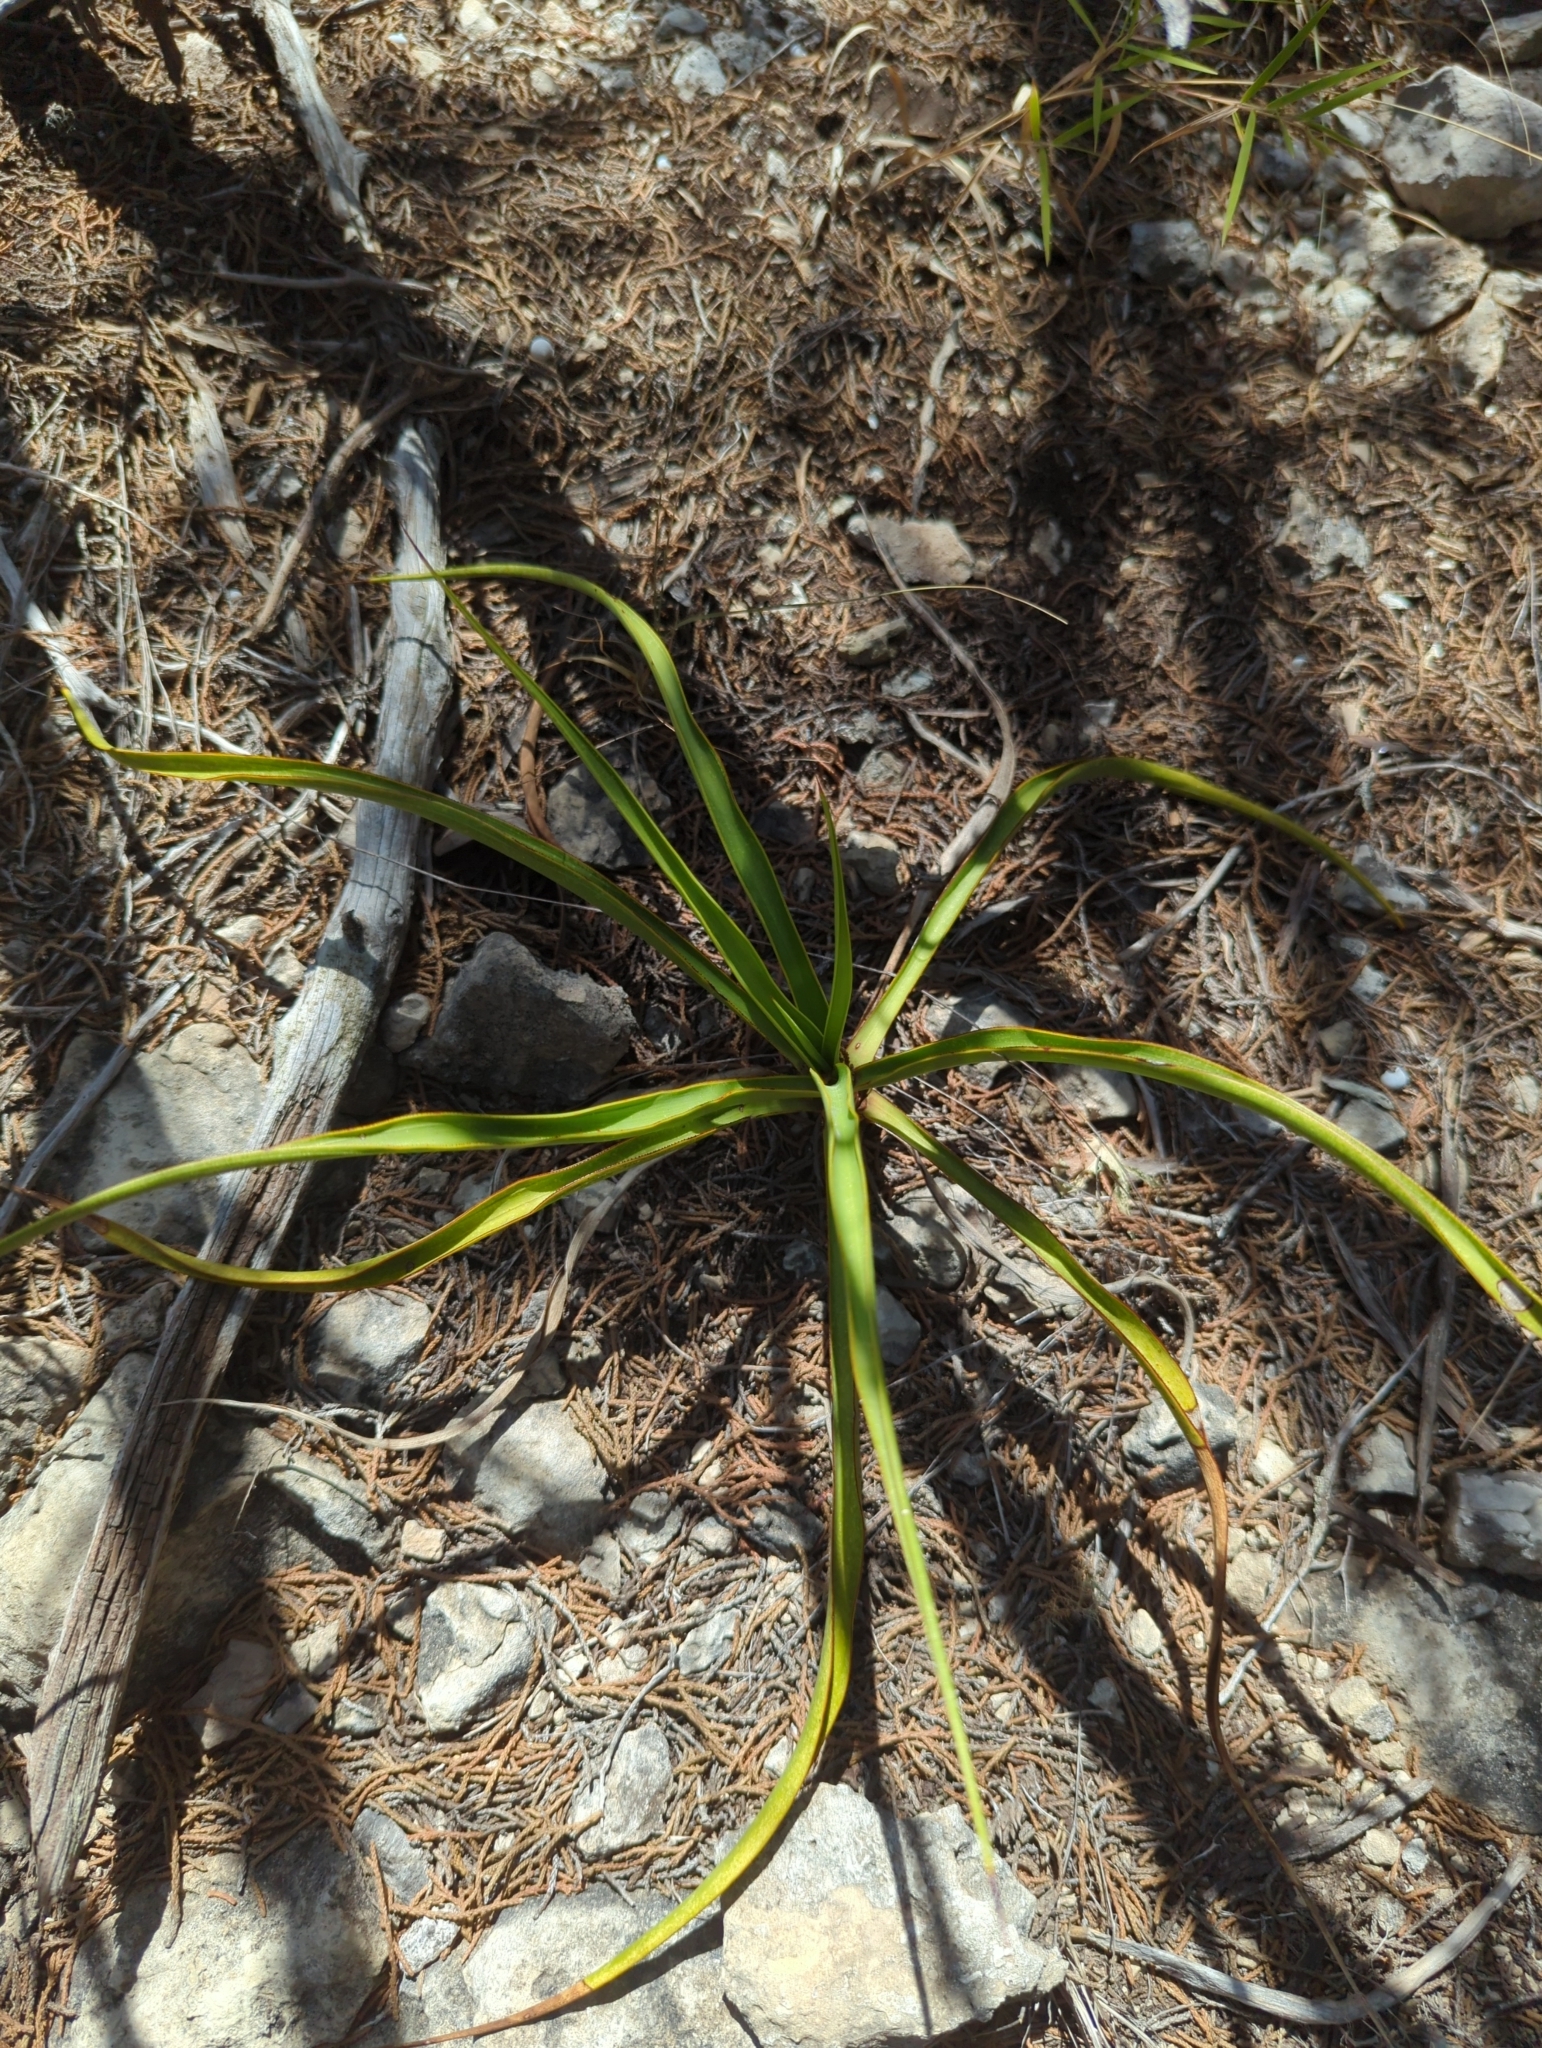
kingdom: Plantae
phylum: Tracheophyta
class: Liliopsida
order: Asparagales
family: Asparagaceae
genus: Yucca
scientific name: Yucca rupicola
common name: Twisted-leaf spanish-dagger
